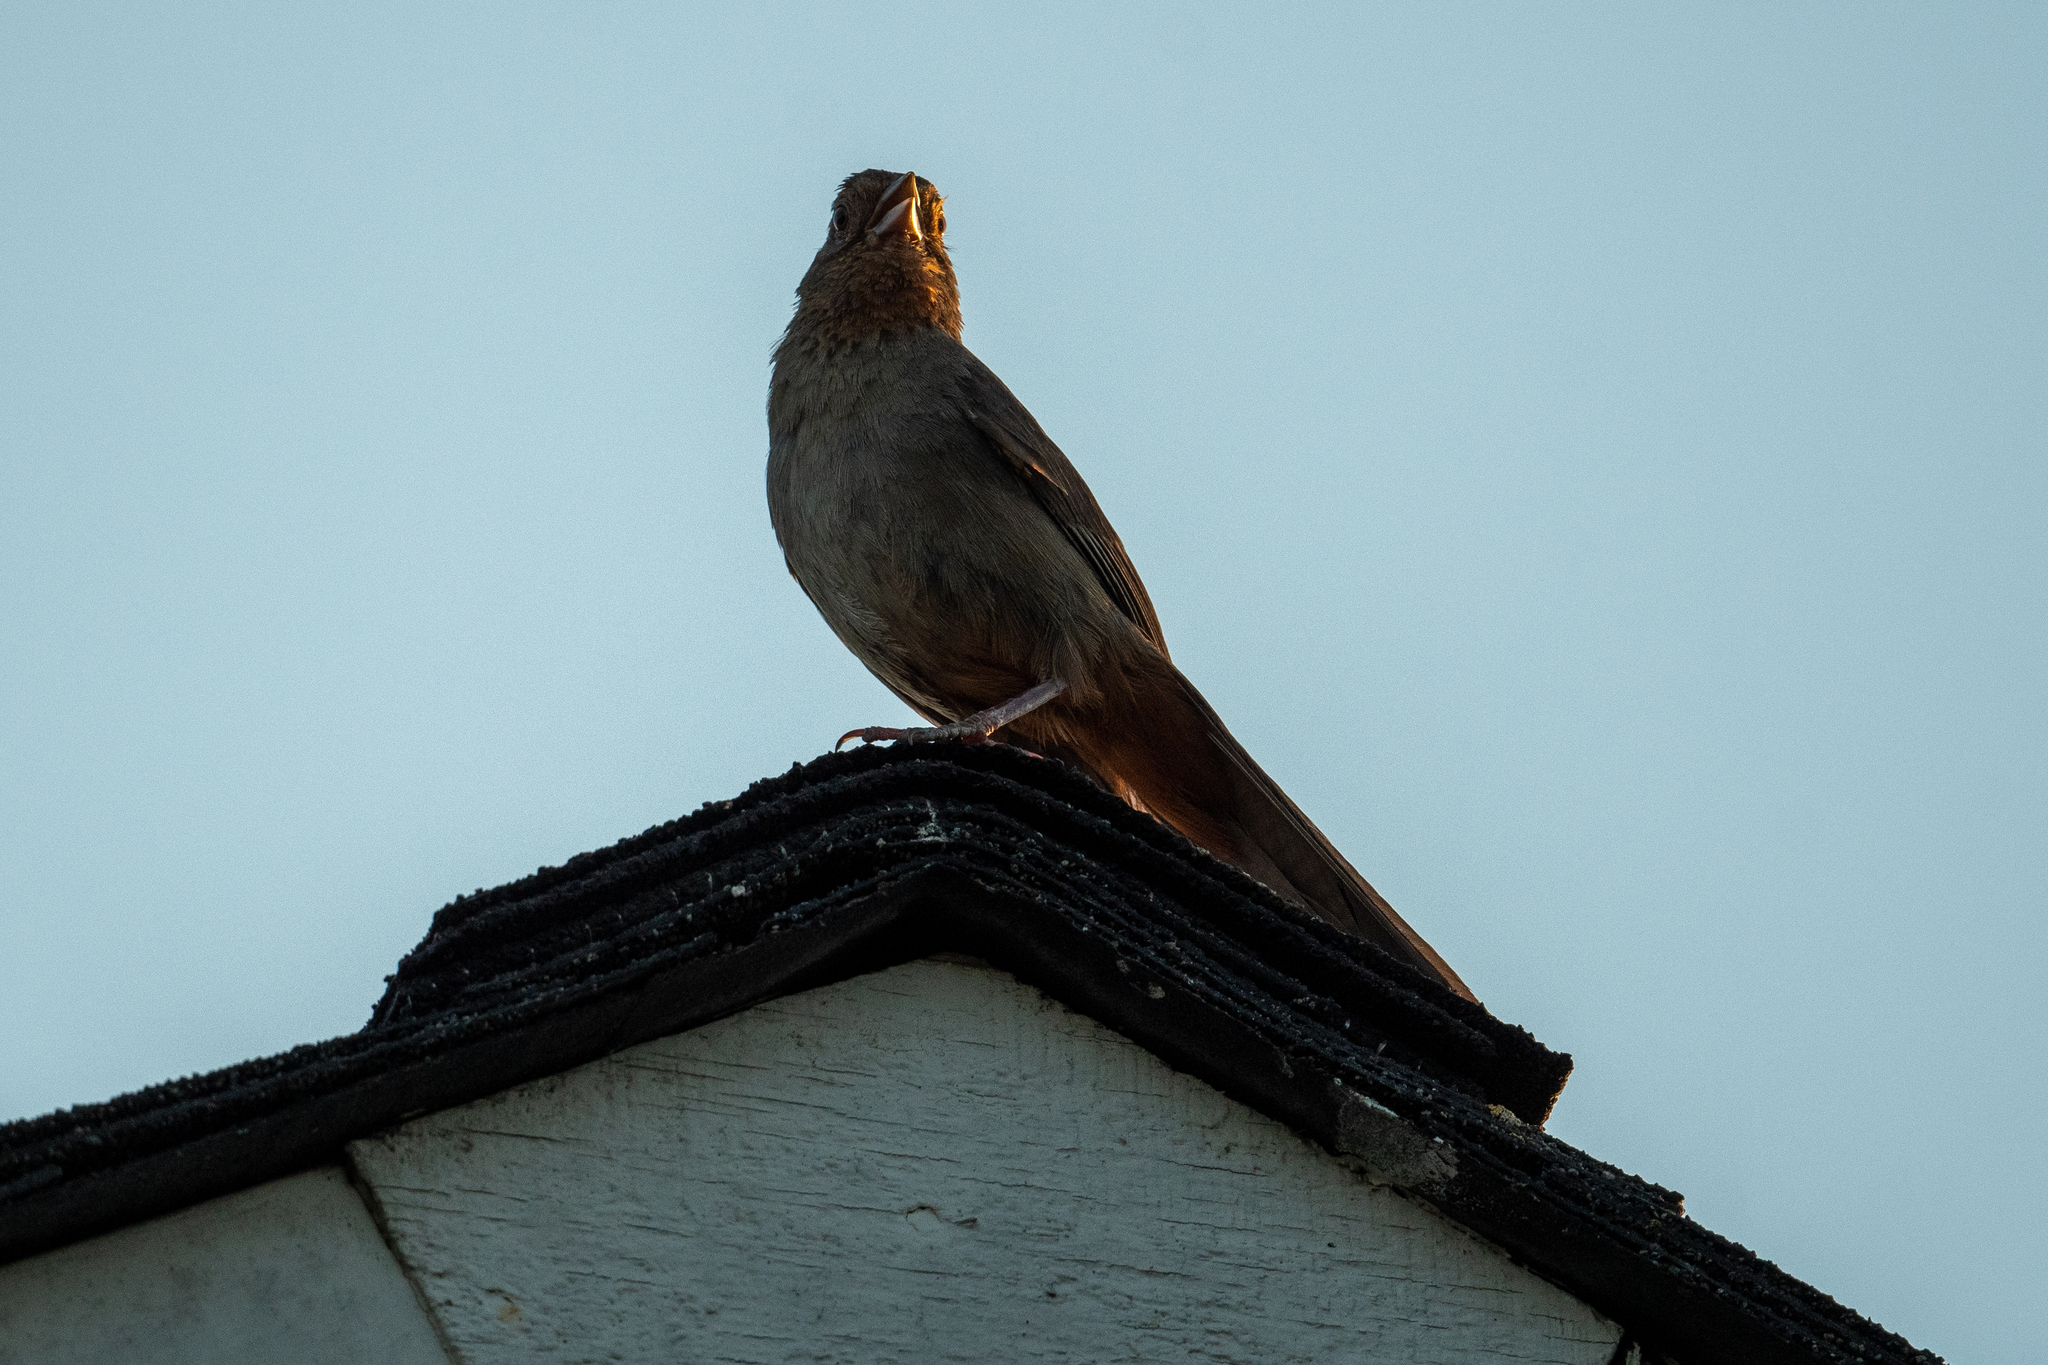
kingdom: Animalia
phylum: Chordata
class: Aves
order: Passeriformes
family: Passerellidae
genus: Melozone
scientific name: Melozone crissalis
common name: California towhee
